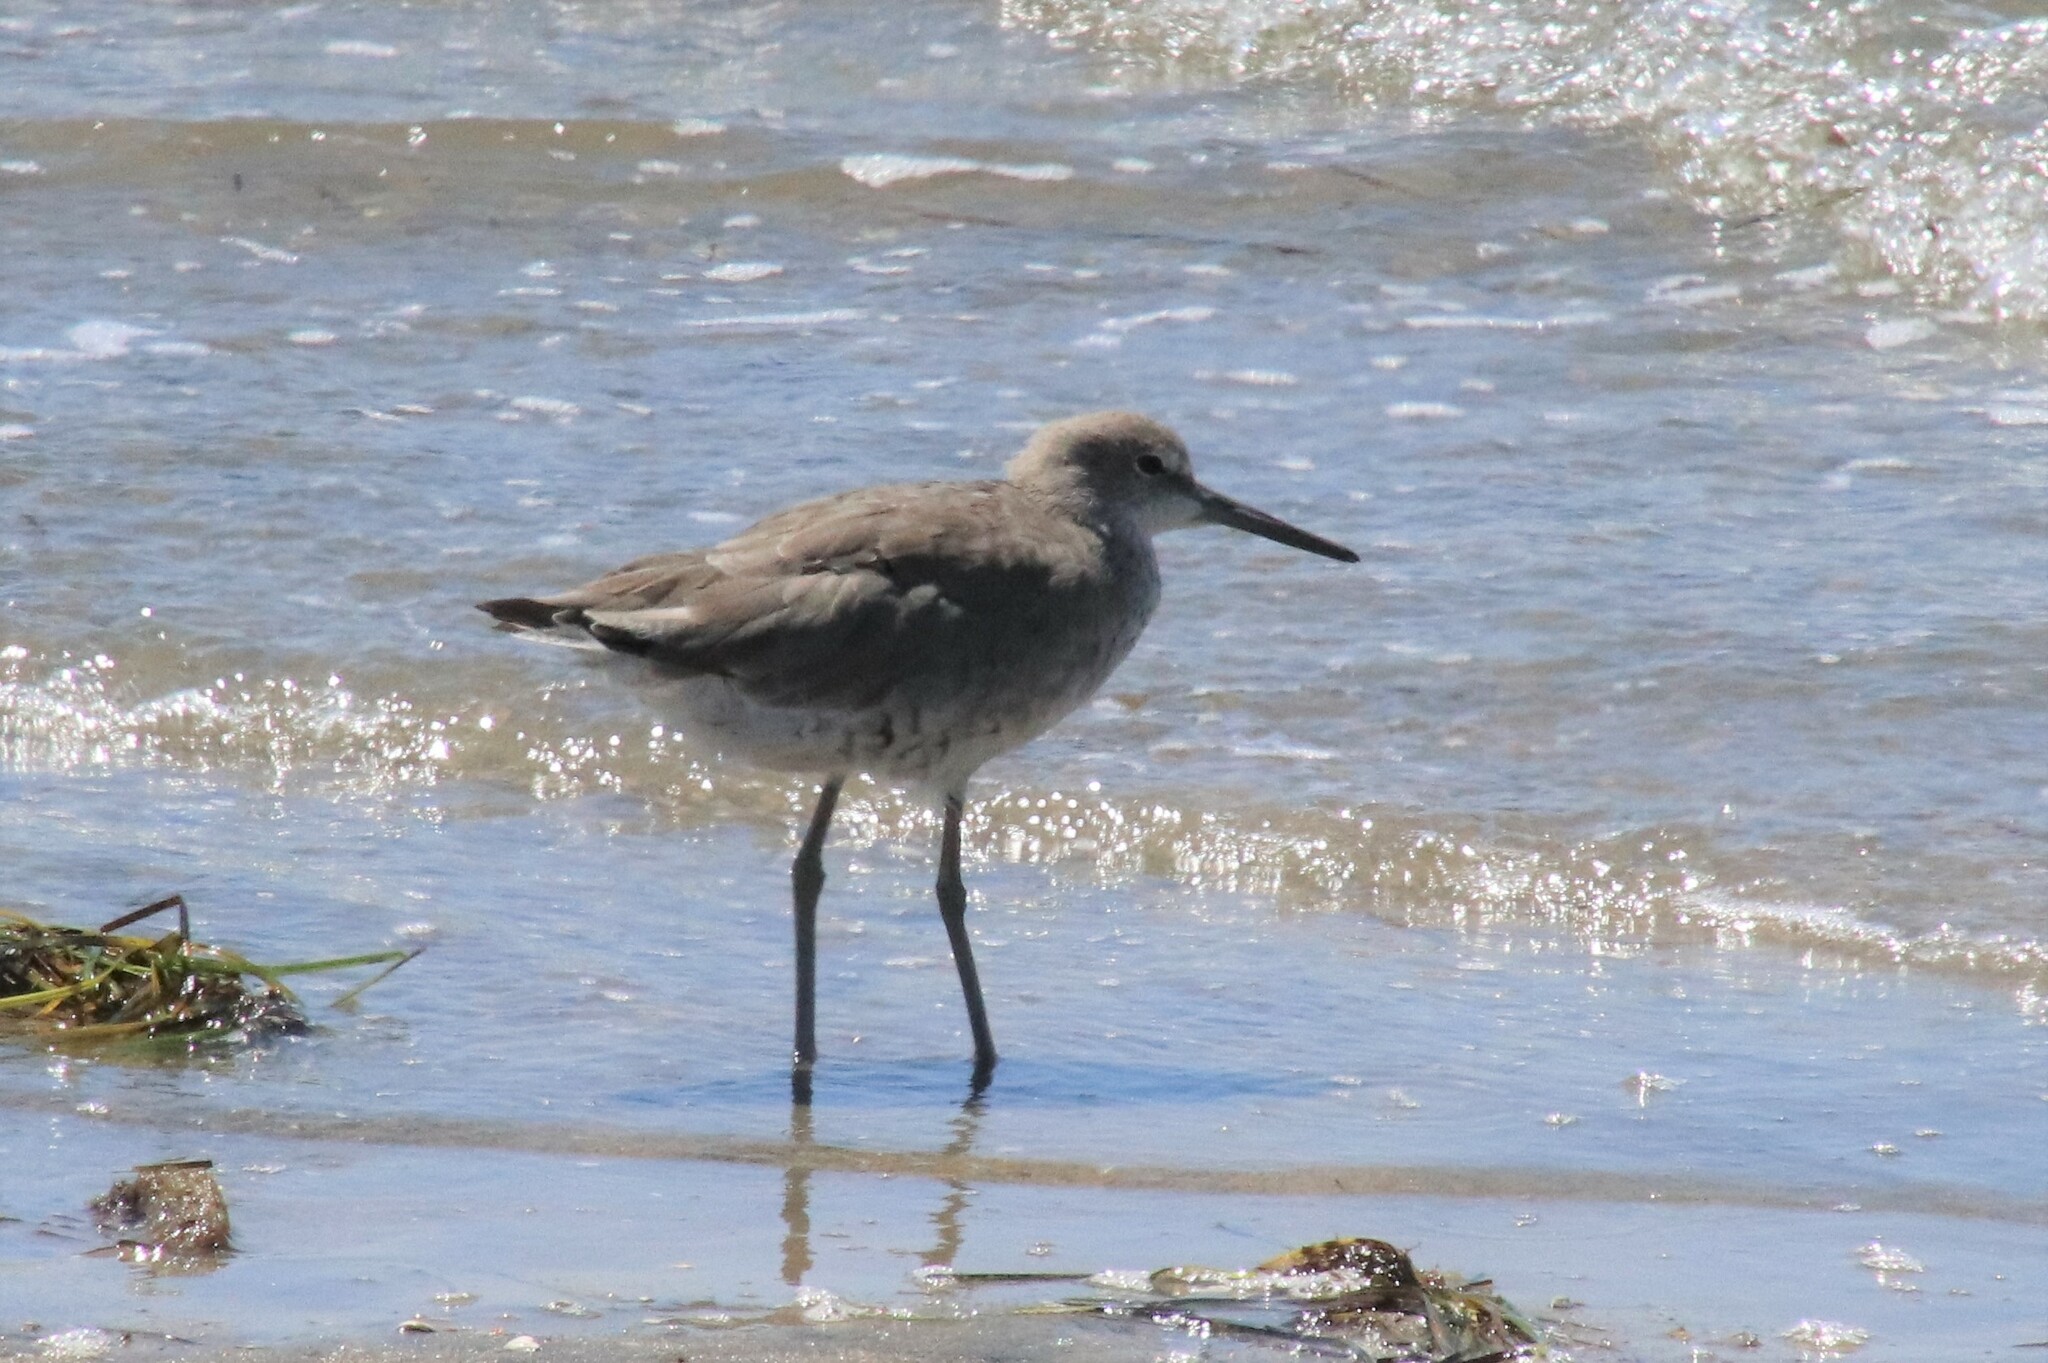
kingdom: Animalia
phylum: Chordata
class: Aves
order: Charadriiformes
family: Scolopacidae
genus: Tringa
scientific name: Tringa semipalmata
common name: Willet
